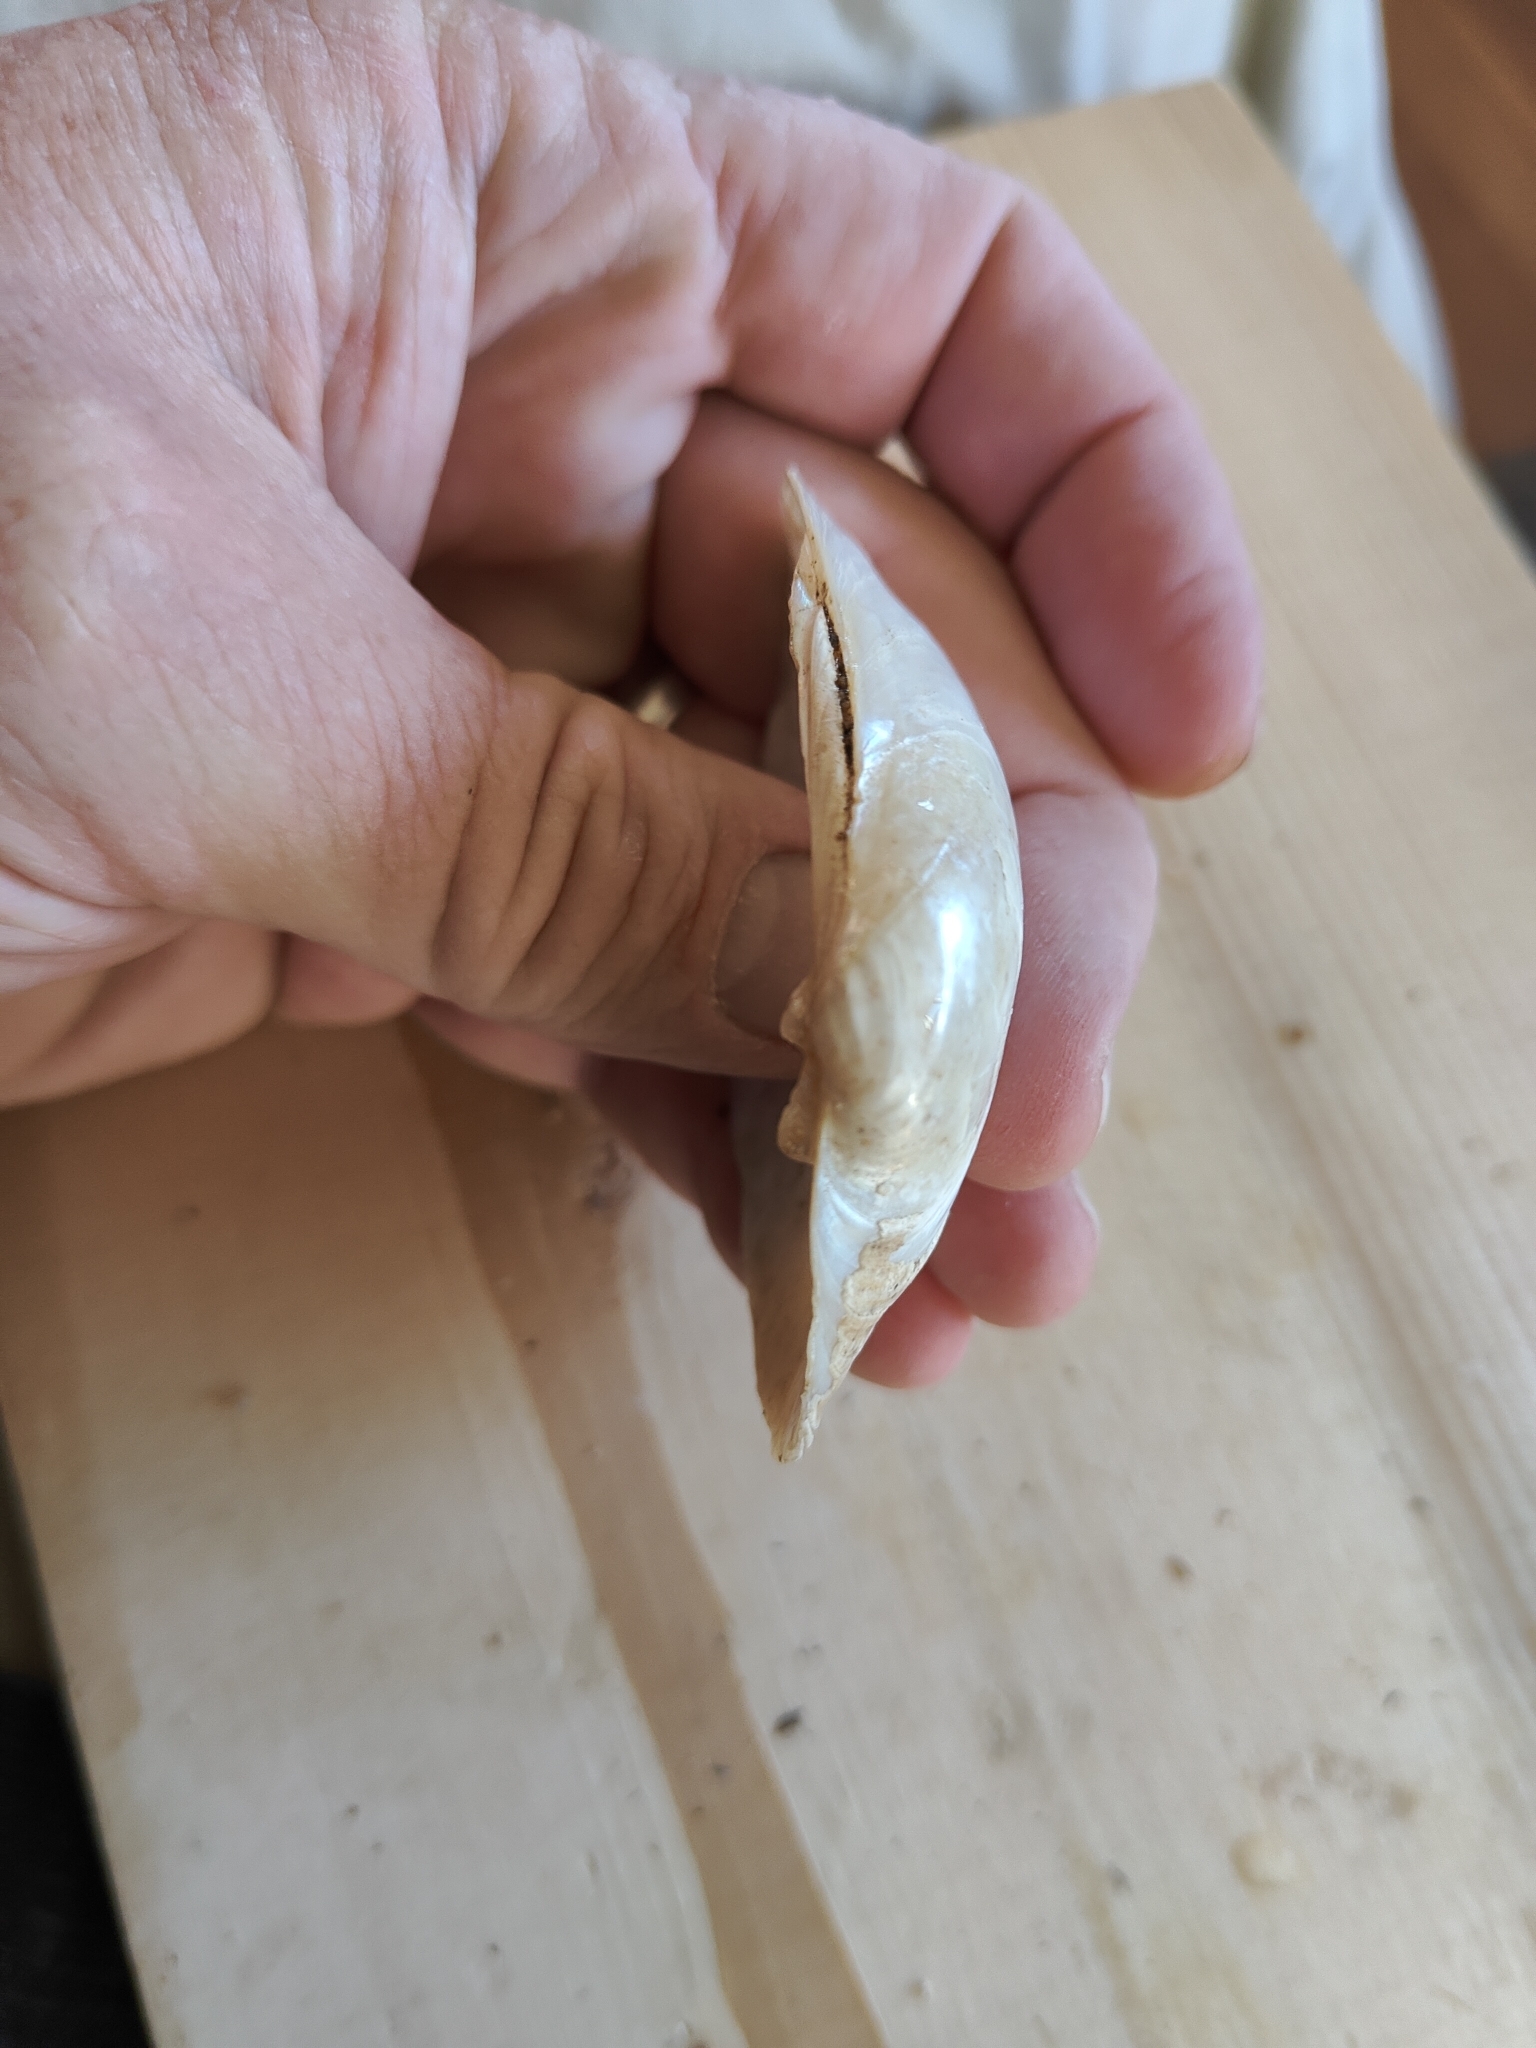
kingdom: Animalia
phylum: Mollusca
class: Bivalvia
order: Unionida
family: Unionidae
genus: Lampsilis
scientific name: Lampsilis cardium
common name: Plain pocketbook
